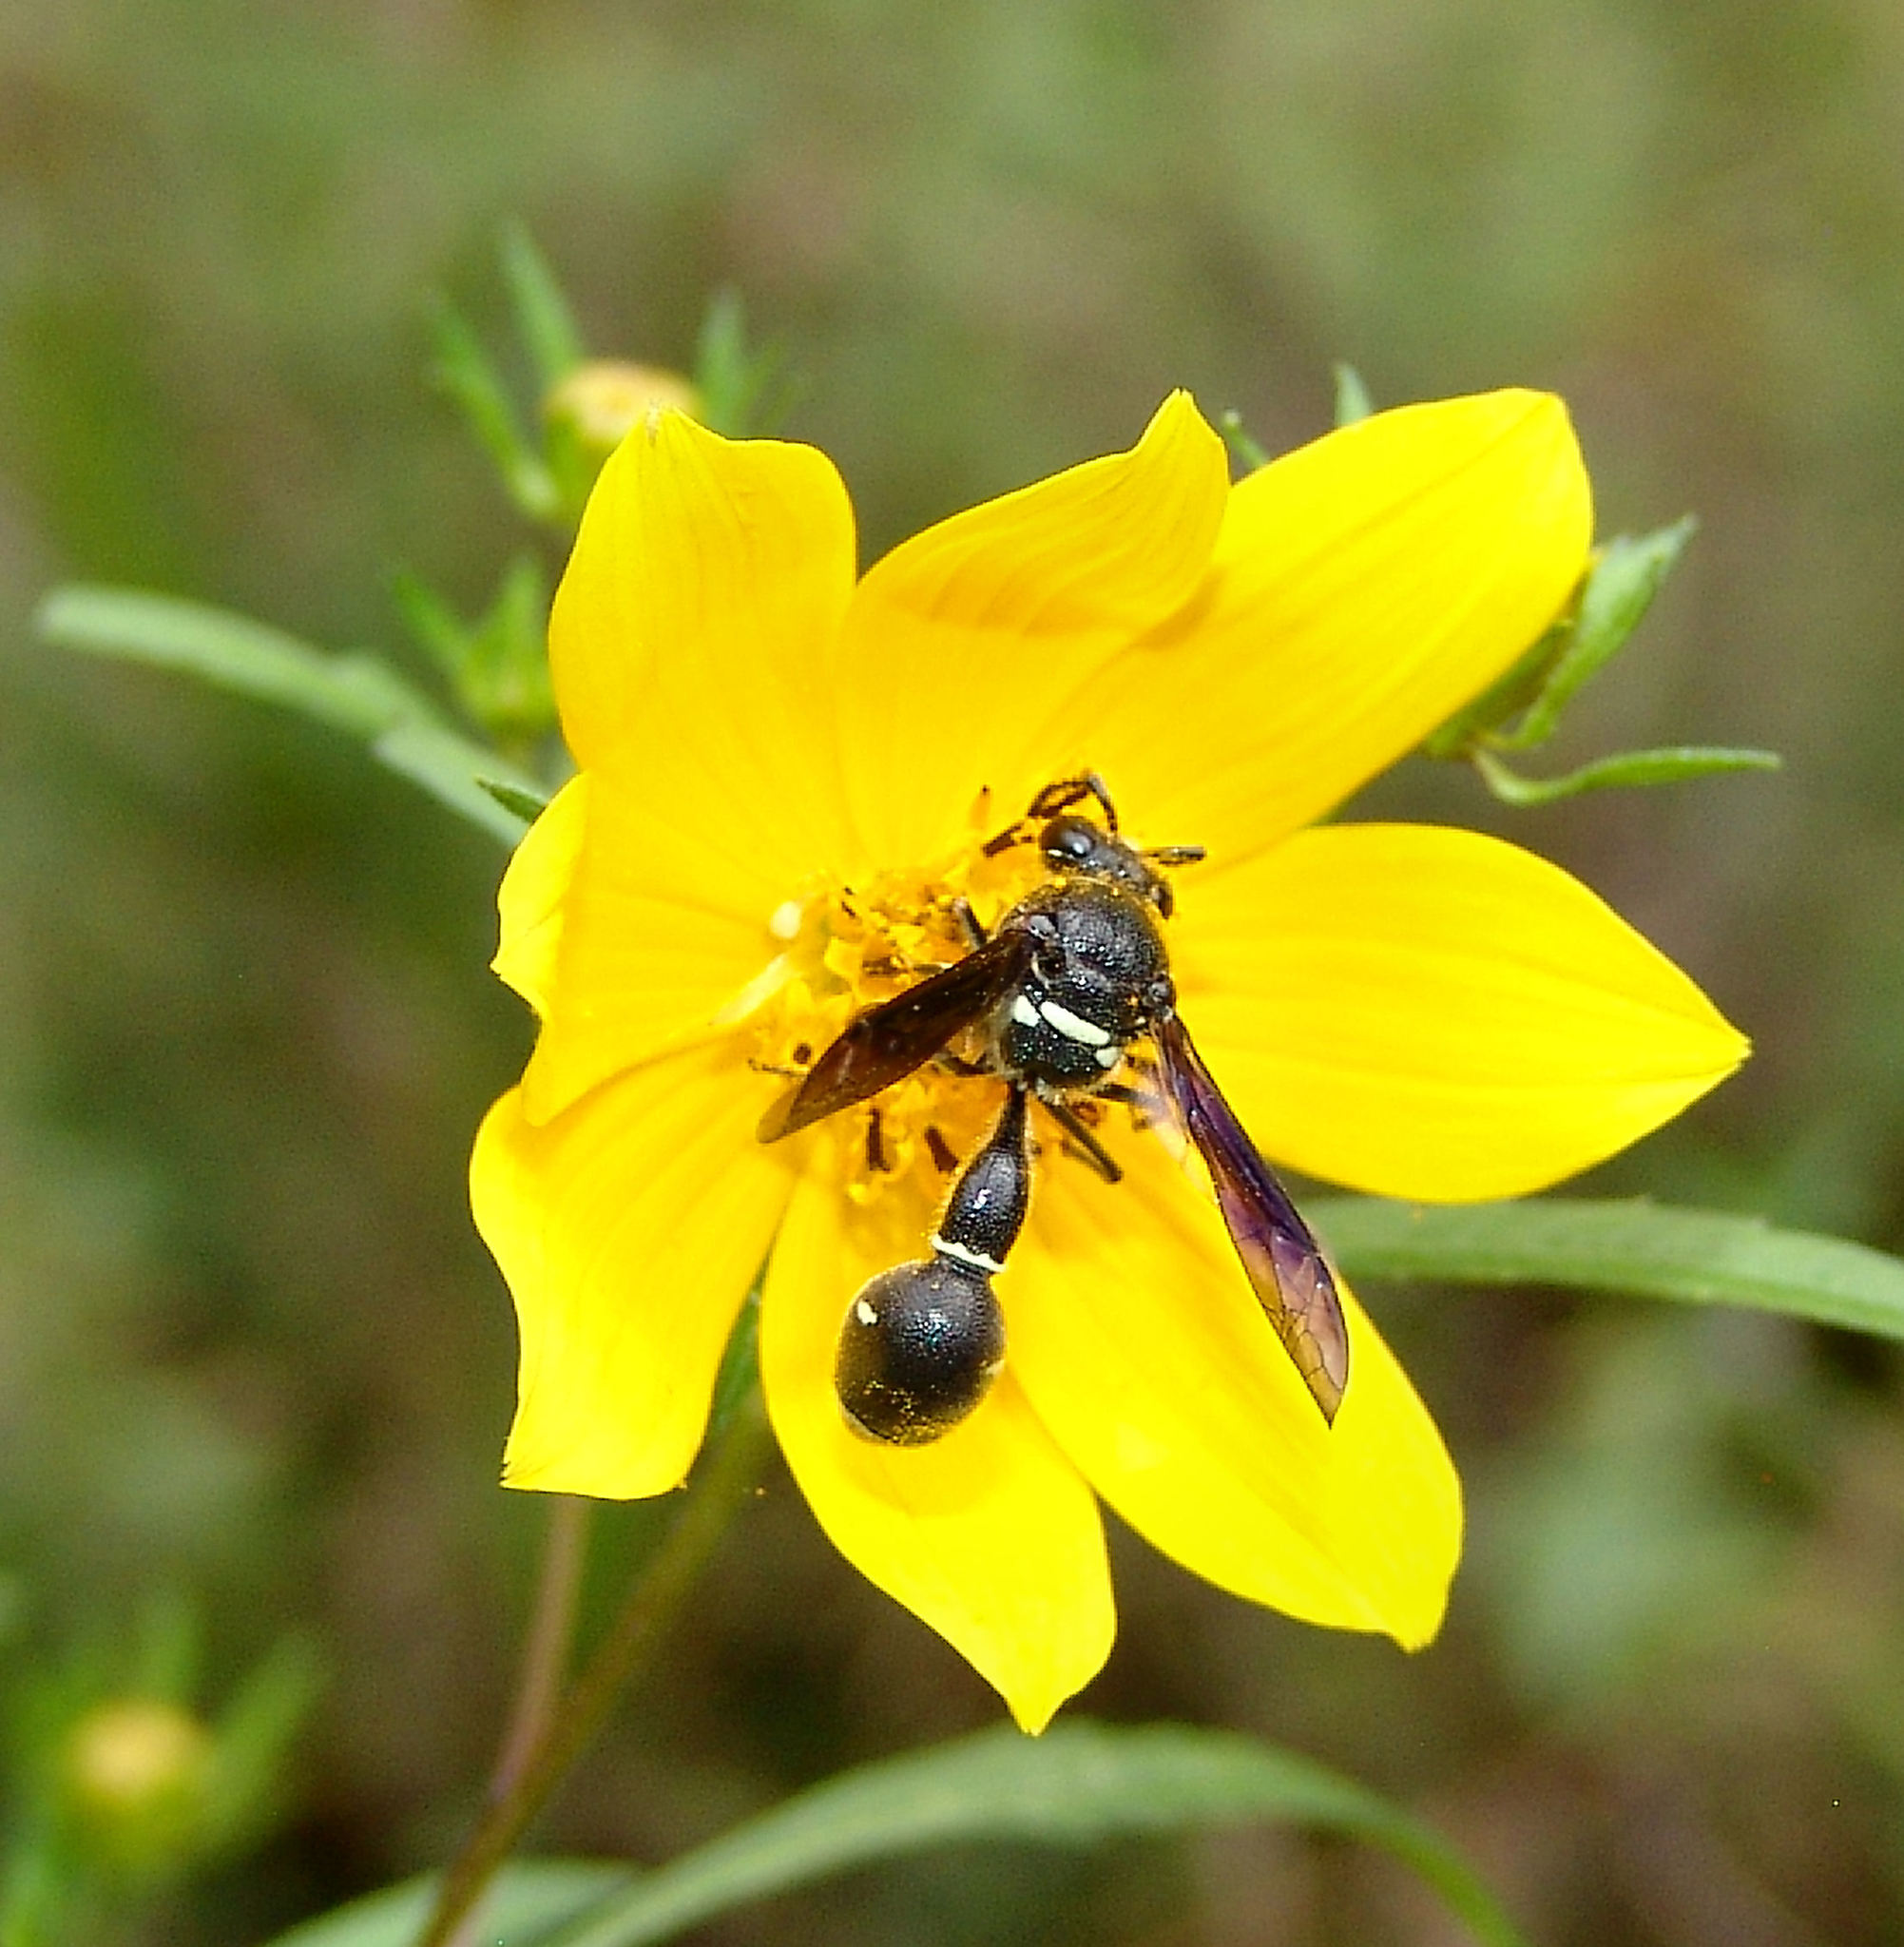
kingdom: Animalia
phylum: Arthropoda
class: Insecta
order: Hymenoptera
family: Vespidae
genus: Eumenes
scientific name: Eumenes fraternus
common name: Fraternal potter wasp
